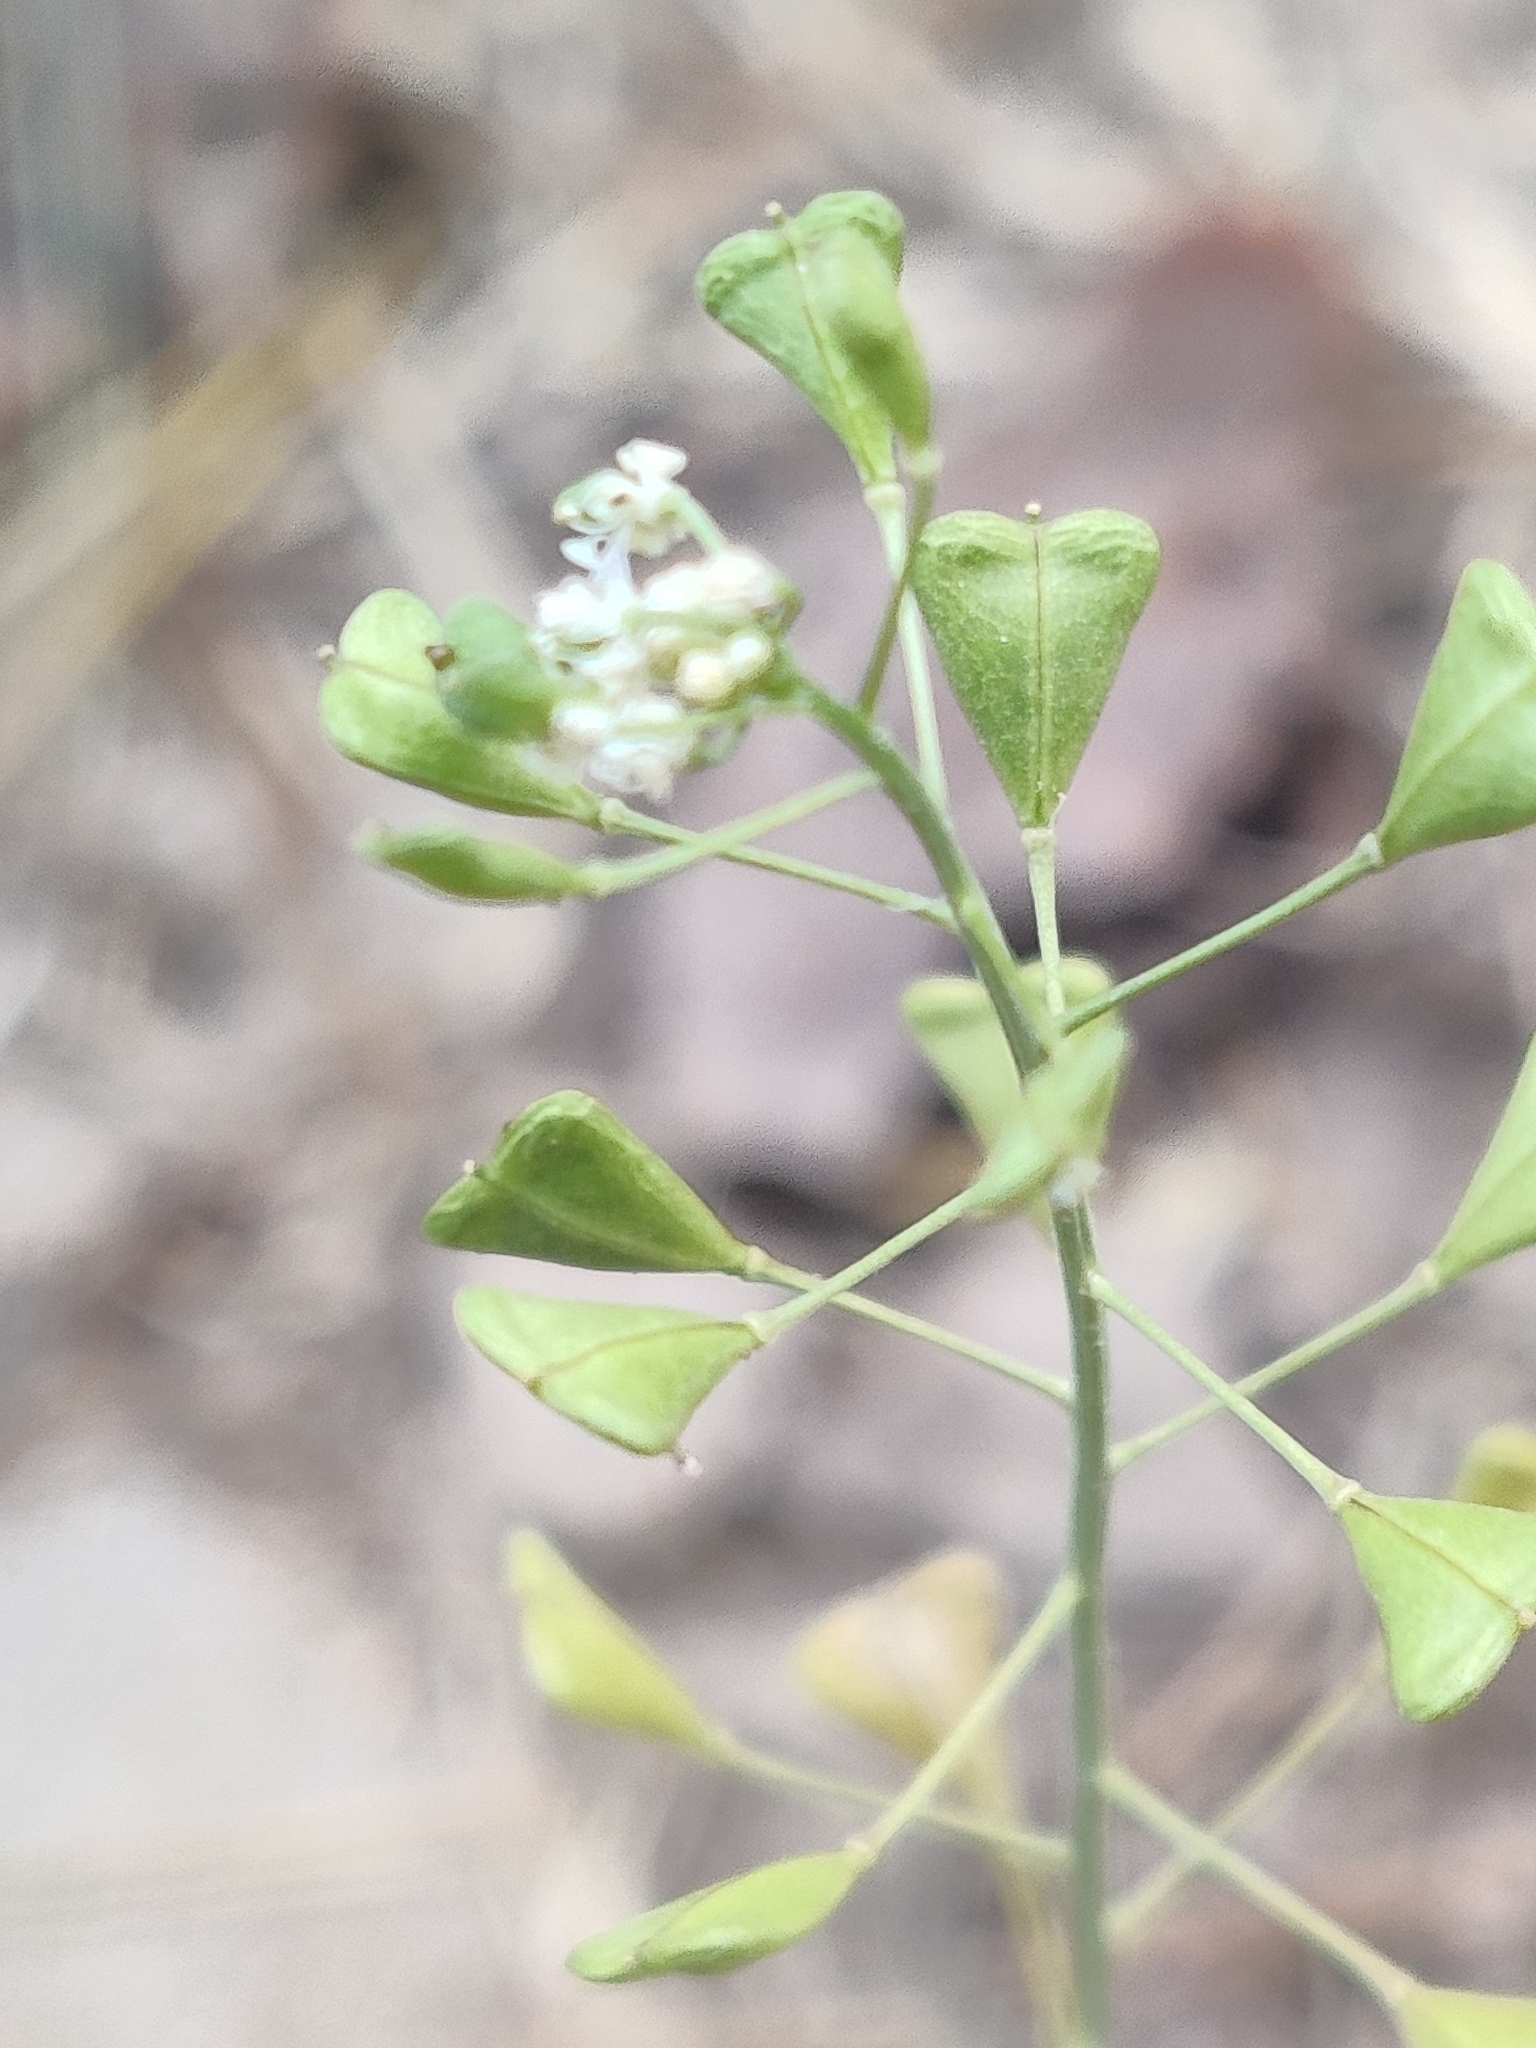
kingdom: Plantae
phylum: Tracheophyta
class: Magnoliopsida
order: Brassicales
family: Brassicaceae
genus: Capsella
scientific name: Capsella bursa-pastoris
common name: Shepherd's purse
